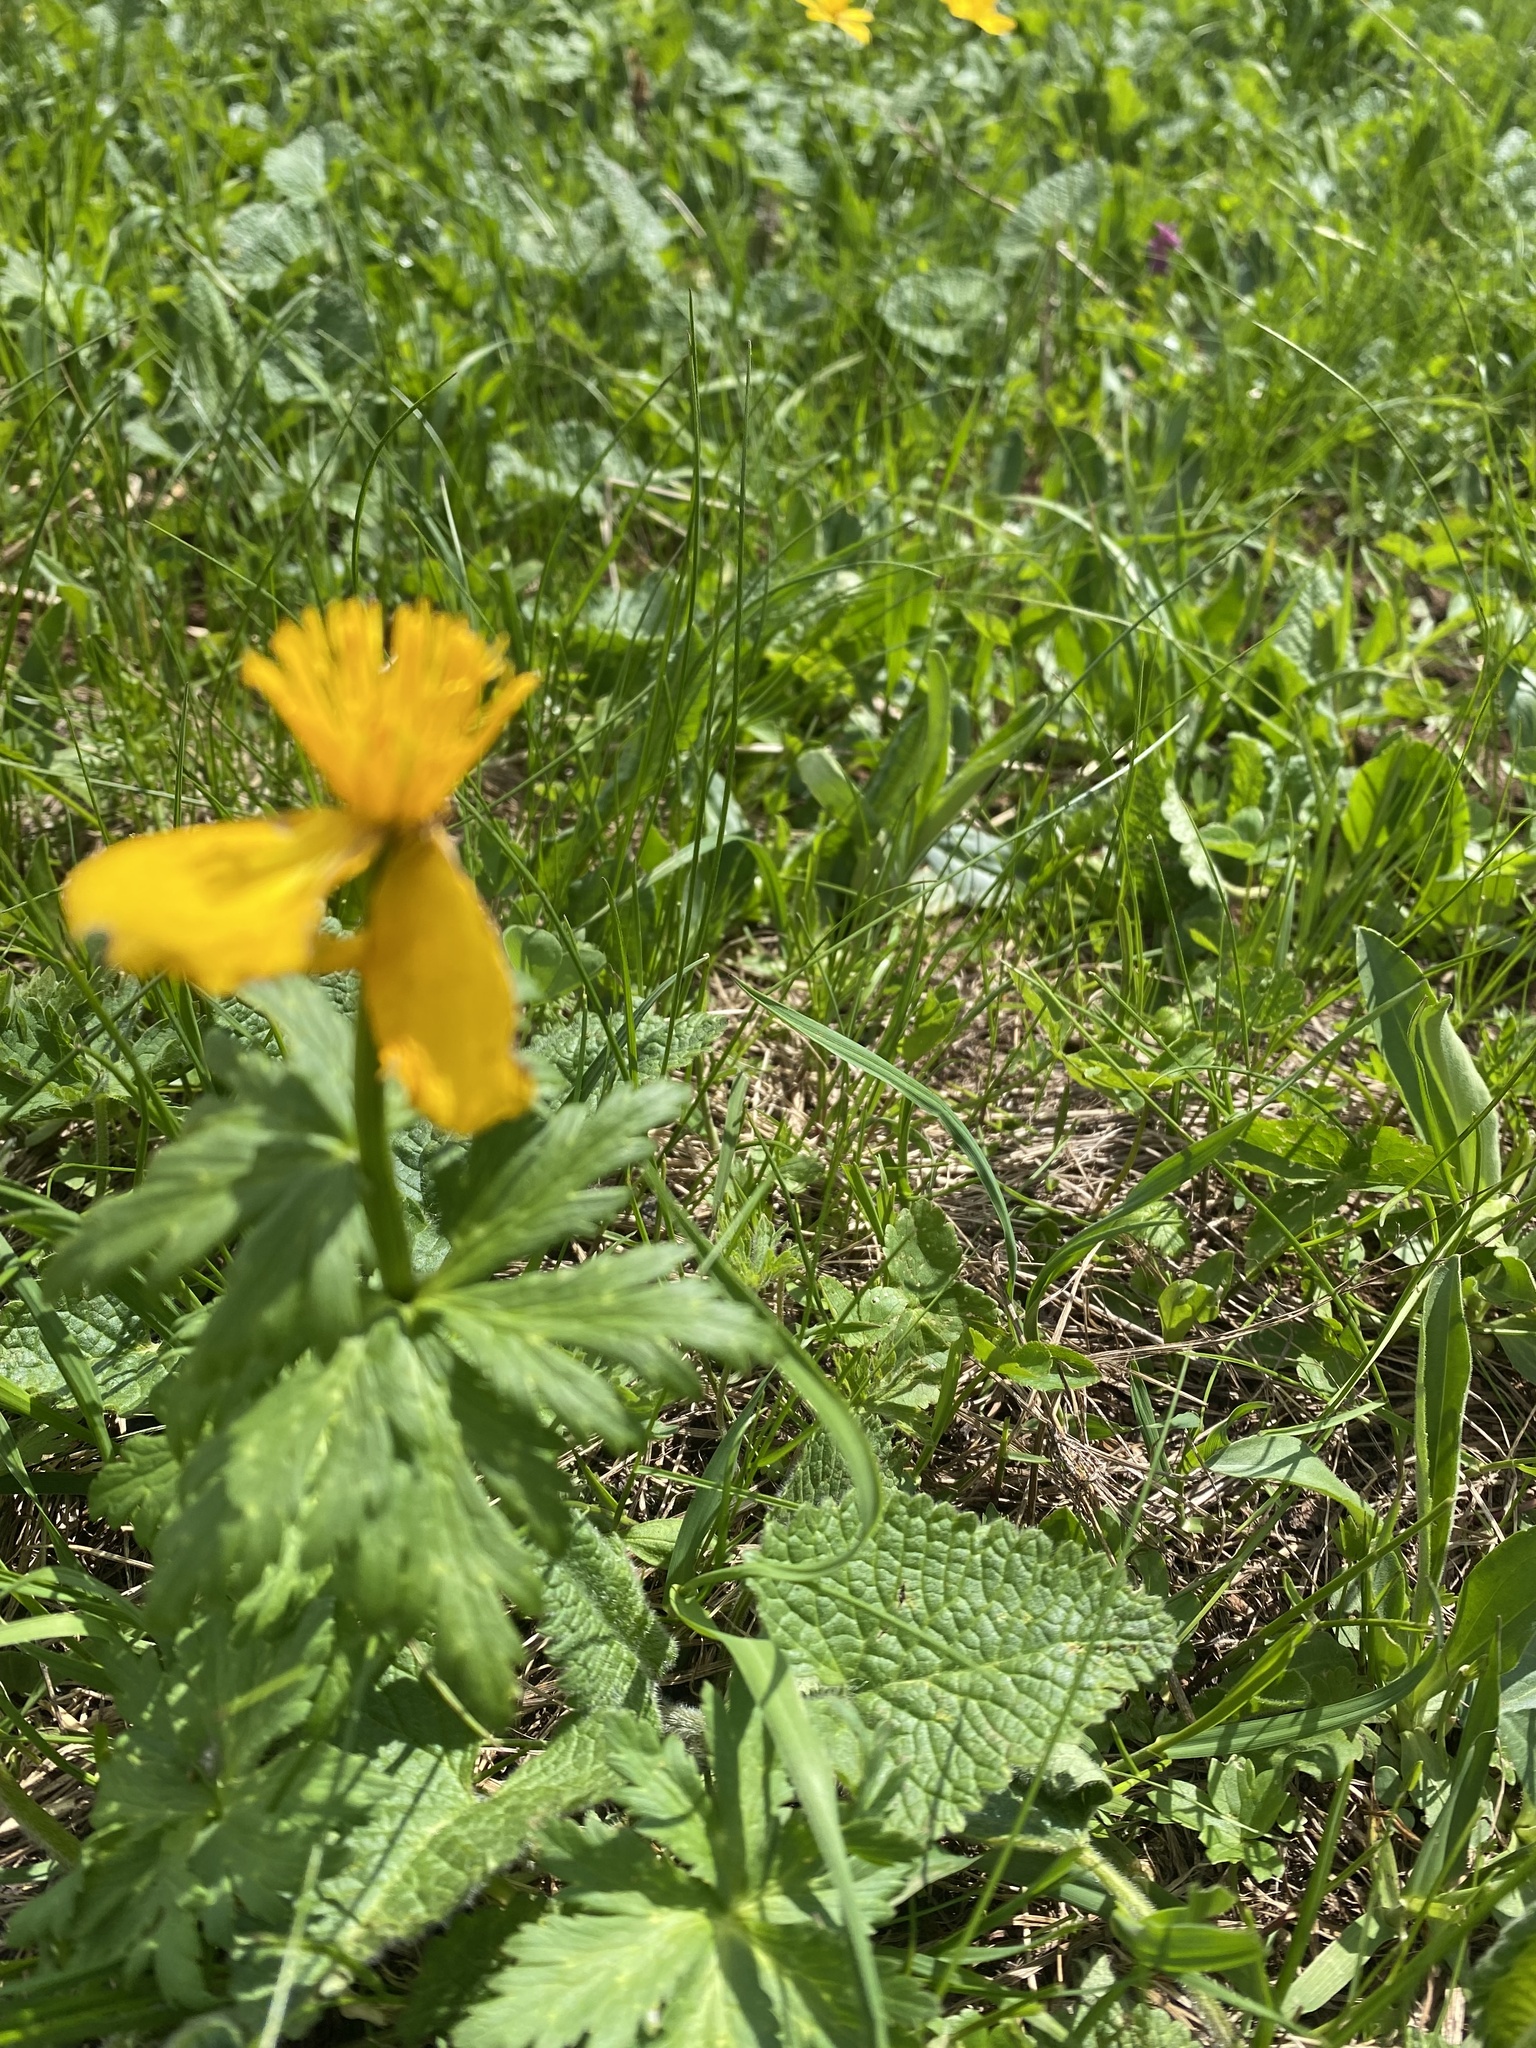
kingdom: Plantae
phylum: Tracheophyta
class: Magnoliopsida
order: Ranunculales
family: Ranunculaceae
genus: Trollius
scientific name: Trollius ranunculinus
